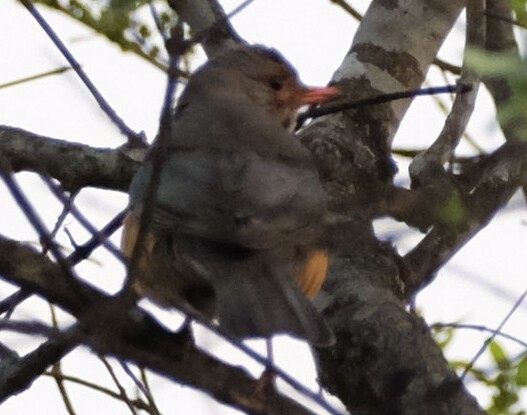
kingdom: Animalia
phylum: Chordata
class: Aves
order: Passeriformes
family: Turdidae
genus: Turdus
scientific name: Turdus libonyana
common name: Kurrichane thrush
